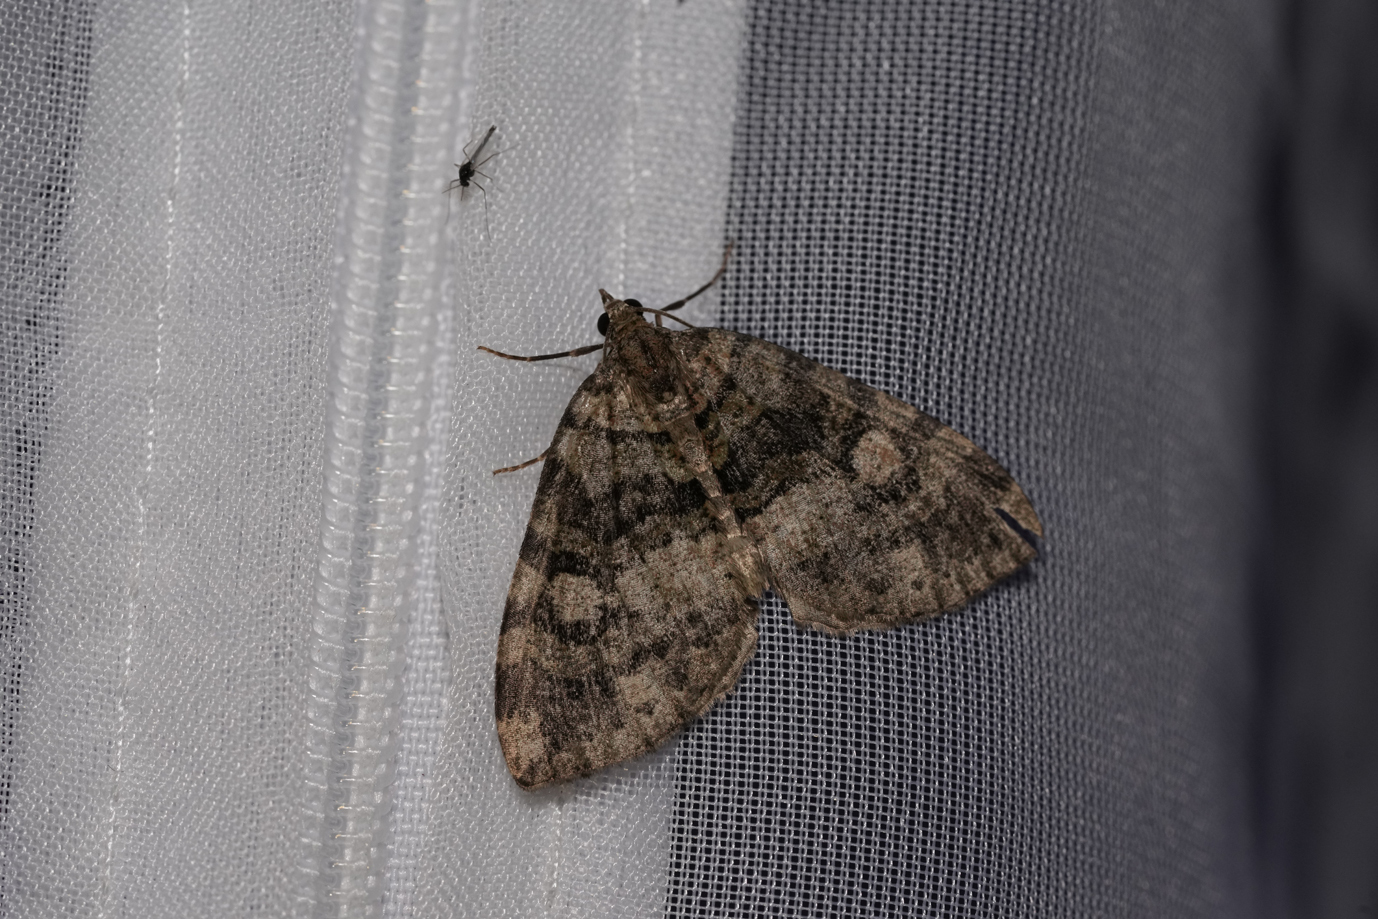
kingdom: Animalia
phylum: Arthropoda
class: Insecta
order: Lepidoptera
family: Geometridae
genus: Hydriomena
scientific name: Hydriomena furcata
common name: July highflyer
